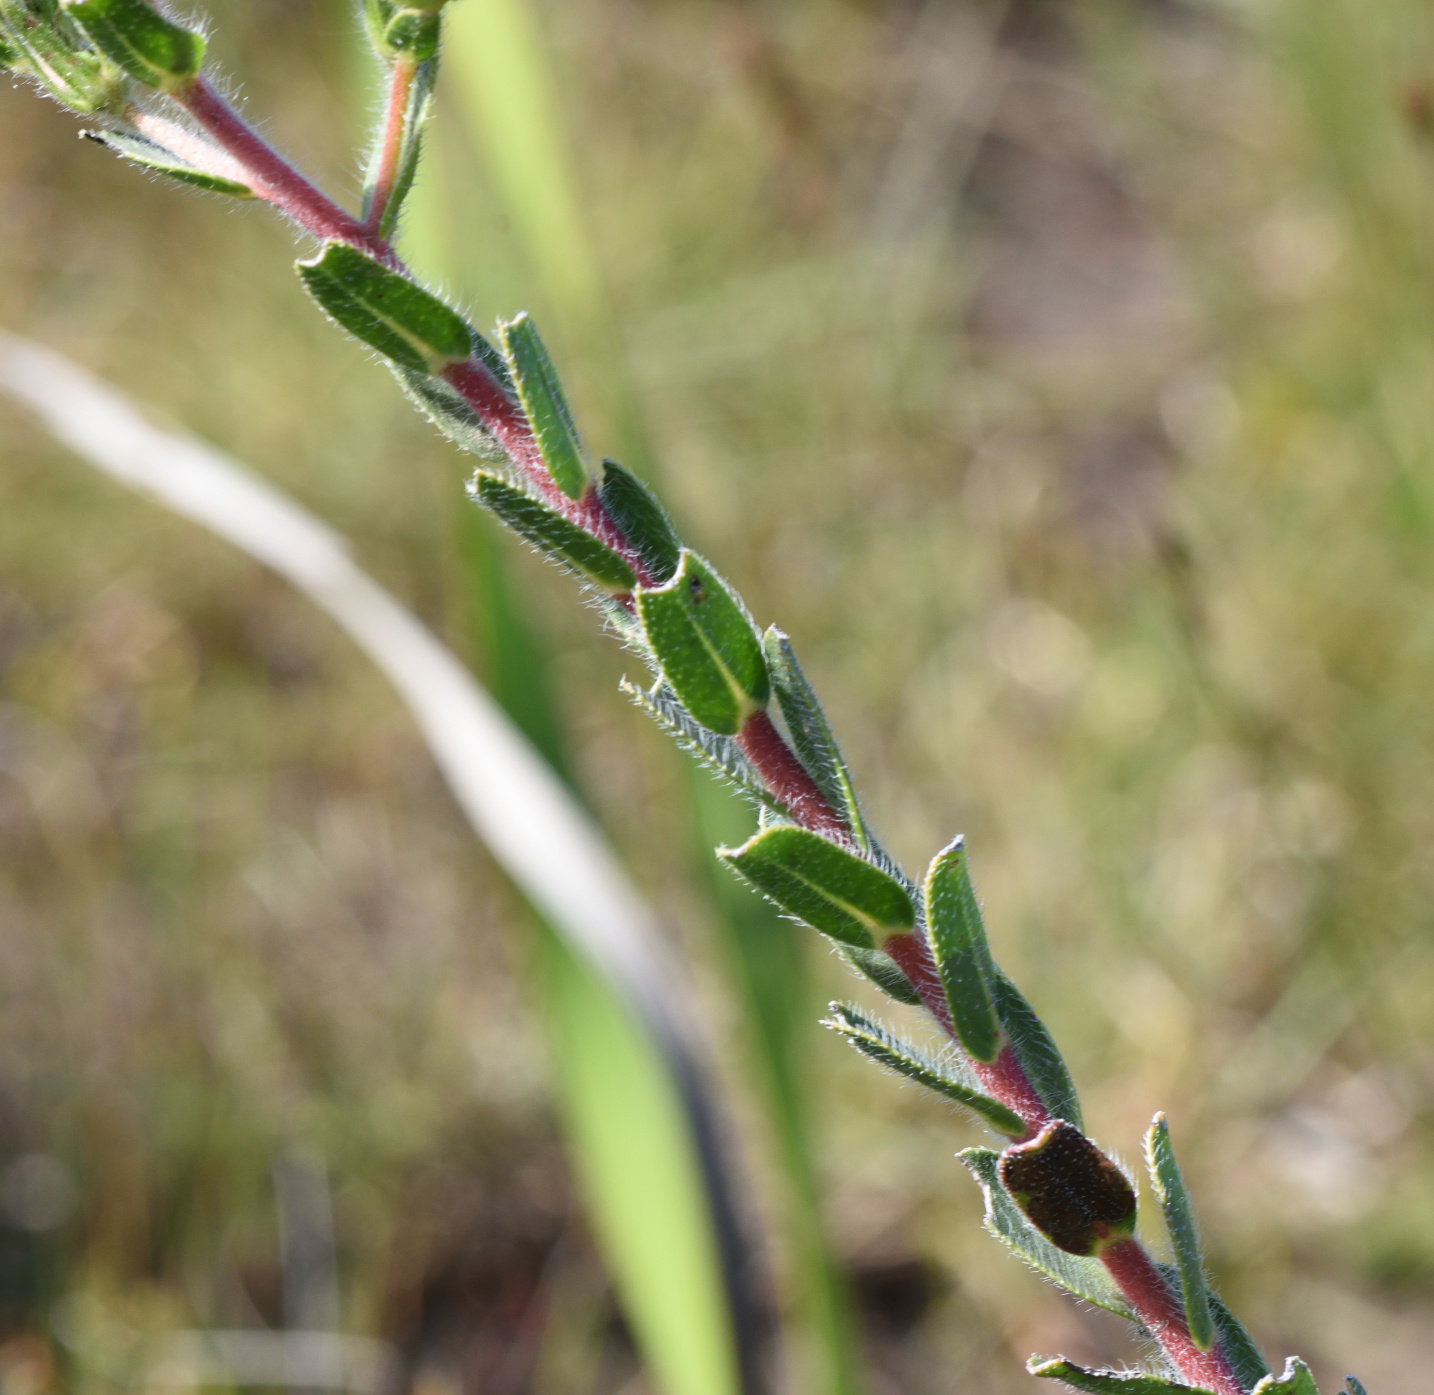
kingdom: Plantae
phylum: Tracheophyta
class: Magnoliopsida
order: Boraginales
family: Boraginaceae
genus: Lobostemon
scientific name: Lobostemon trigonus
